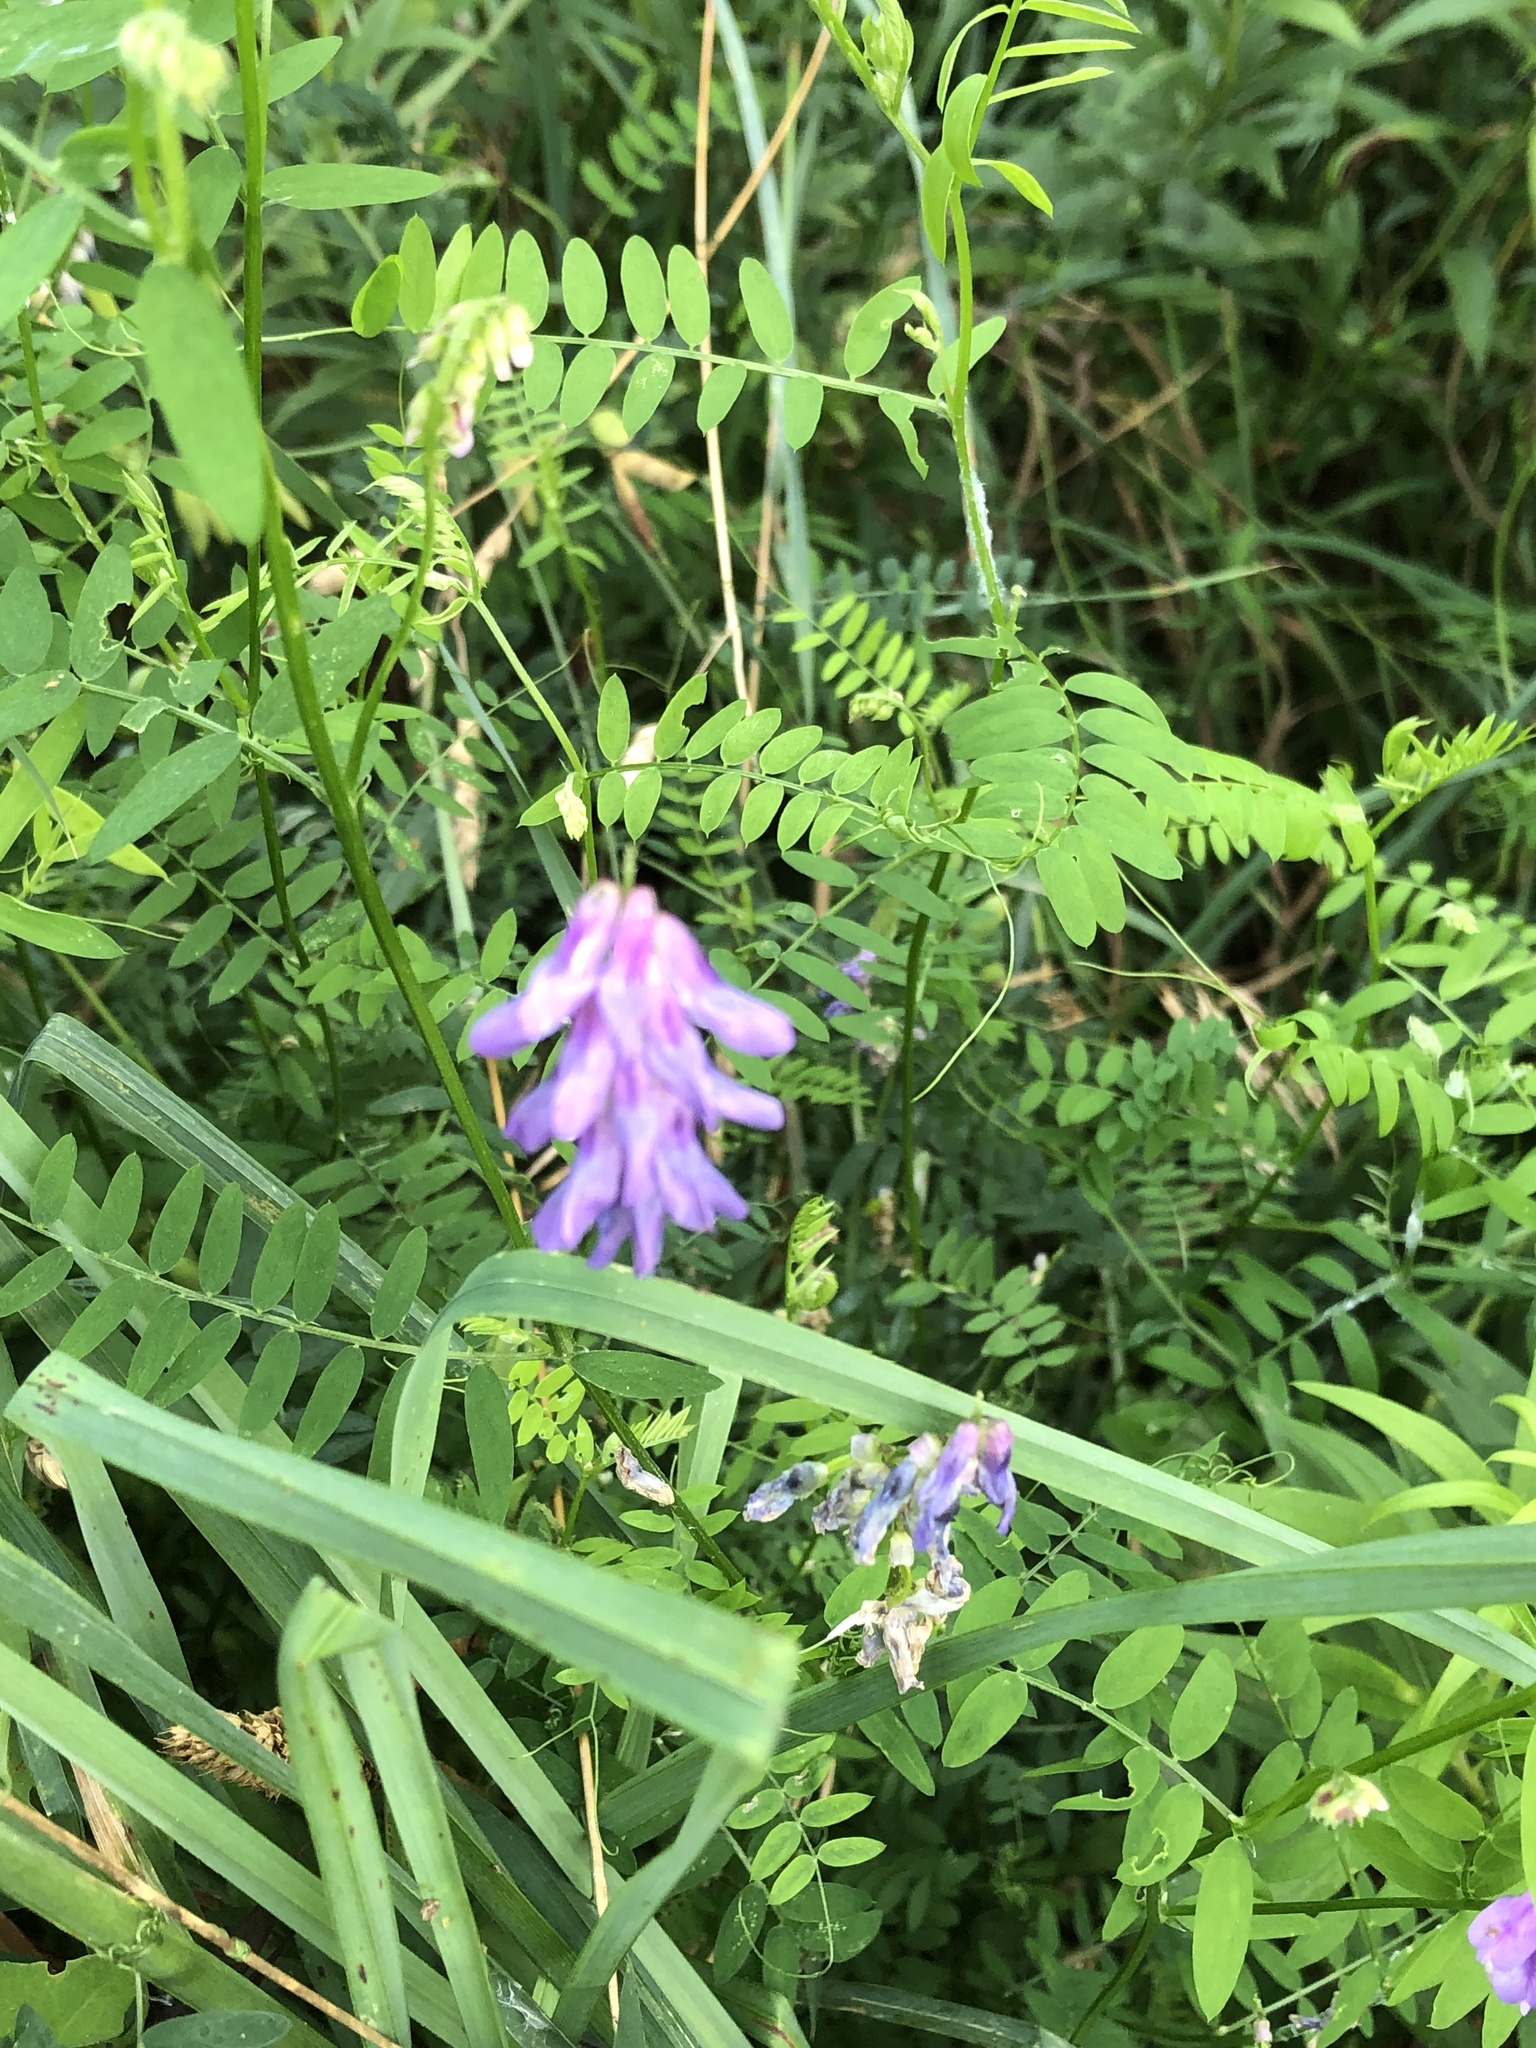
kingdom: Plantae
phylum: Tracheophyta
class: Magnoliopsida
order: Fabales
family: Fabaceae
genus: Vicia
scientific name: Vicia cracca
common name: Bird vetch
